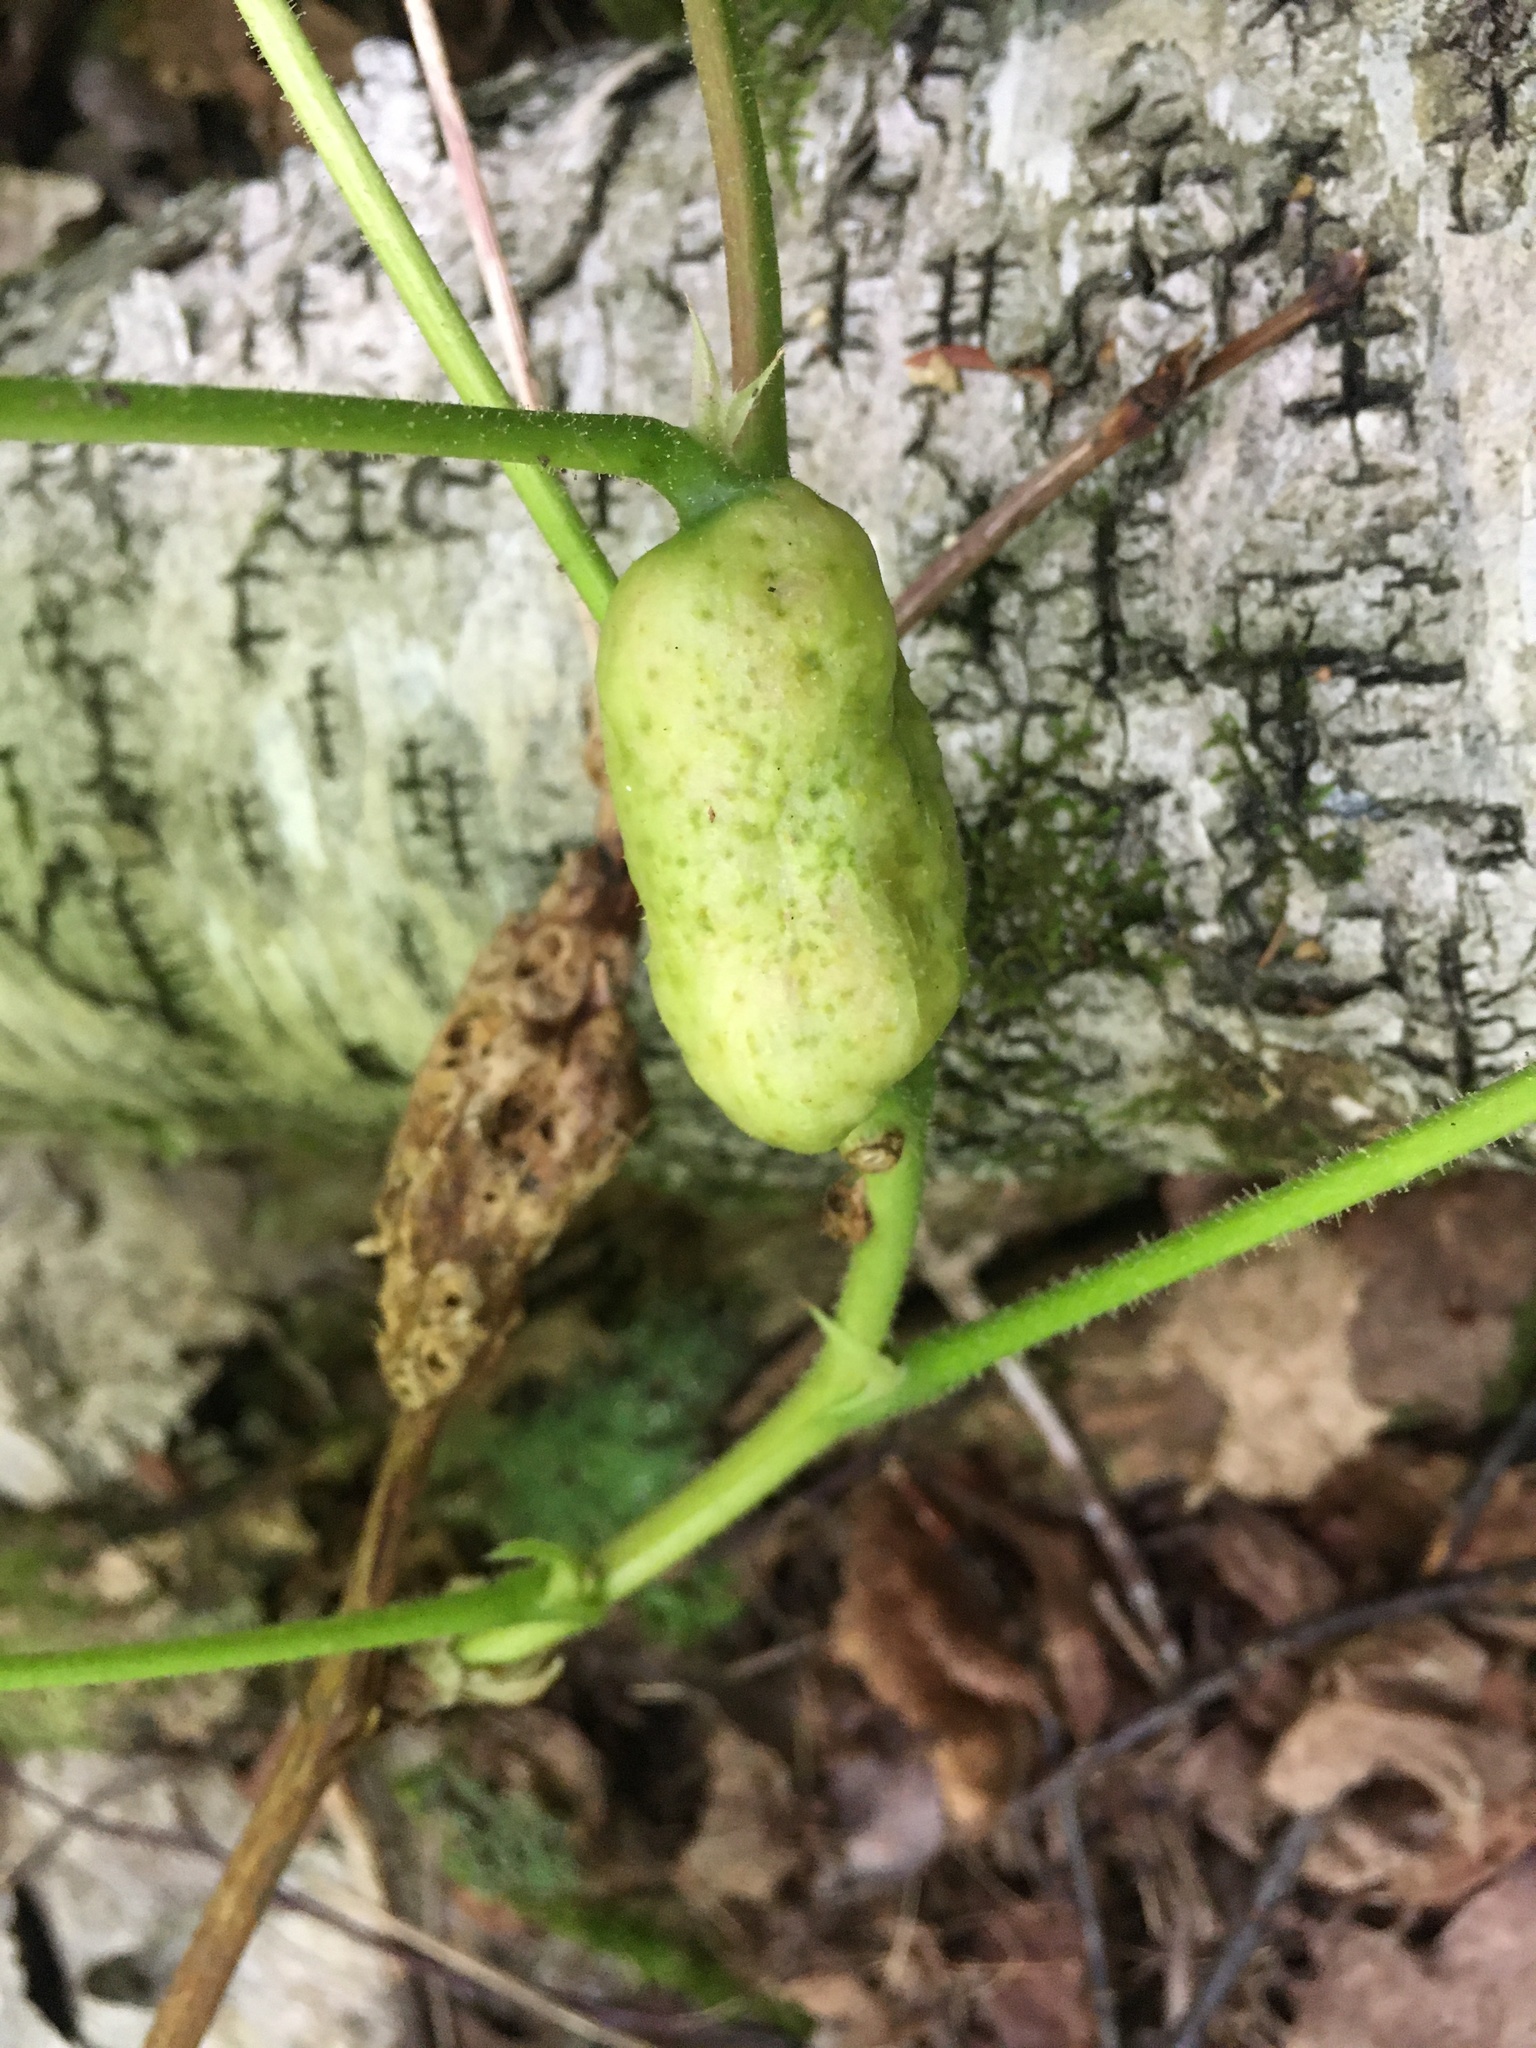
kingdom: Animalia
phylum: Arthropoda
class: Insecta
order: Hymenoptera
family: Cynipidae
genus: Diastrophus
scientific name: Diastrophus
